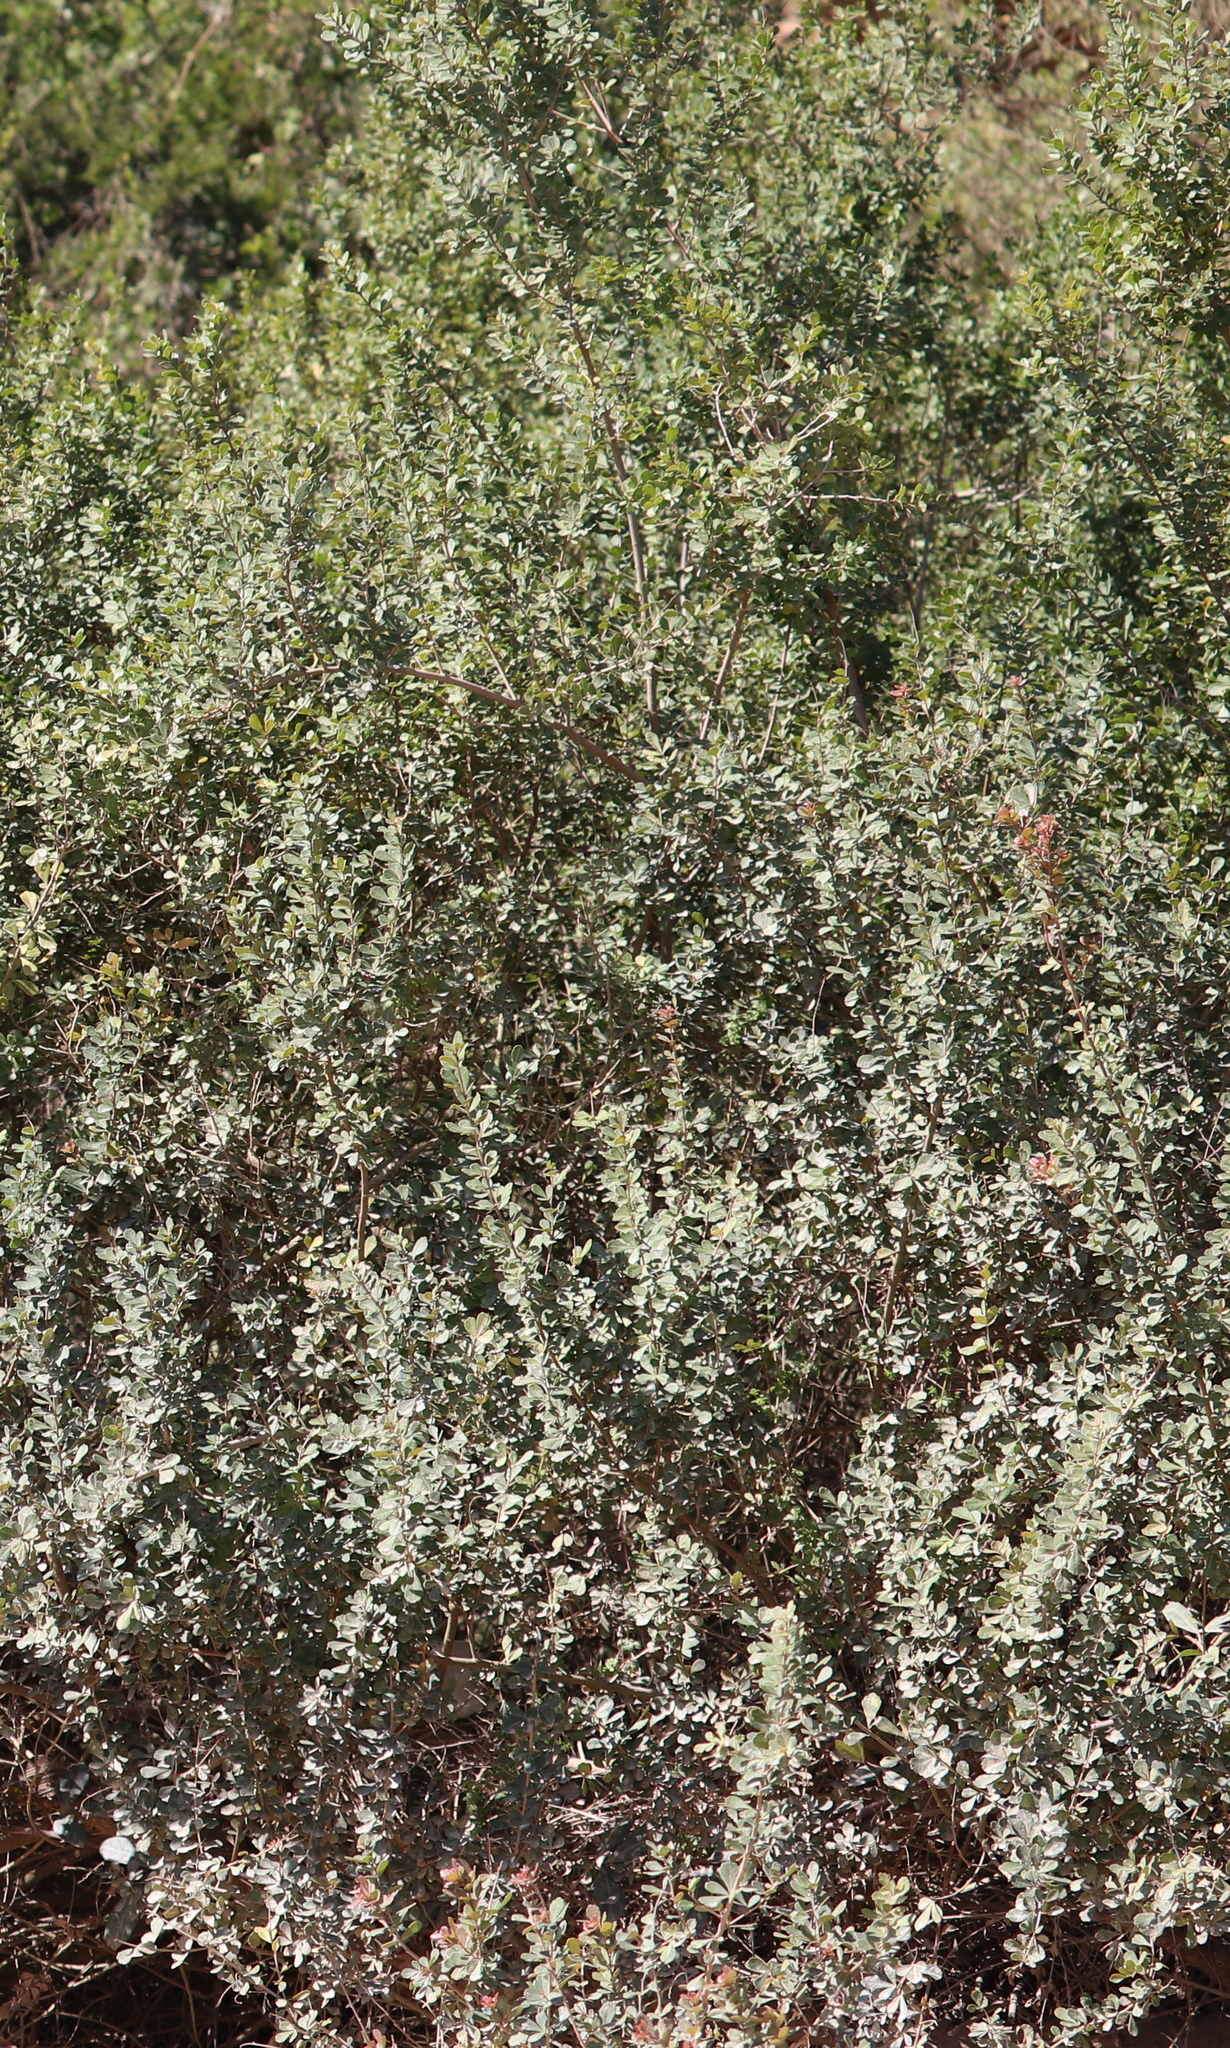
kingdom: Plantae
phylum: Tracheophyta
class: Magnoliopsida
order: Sapindales
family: Anacardiaceae
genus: Searsia
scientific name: Searsia crenata
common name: Crowberry
